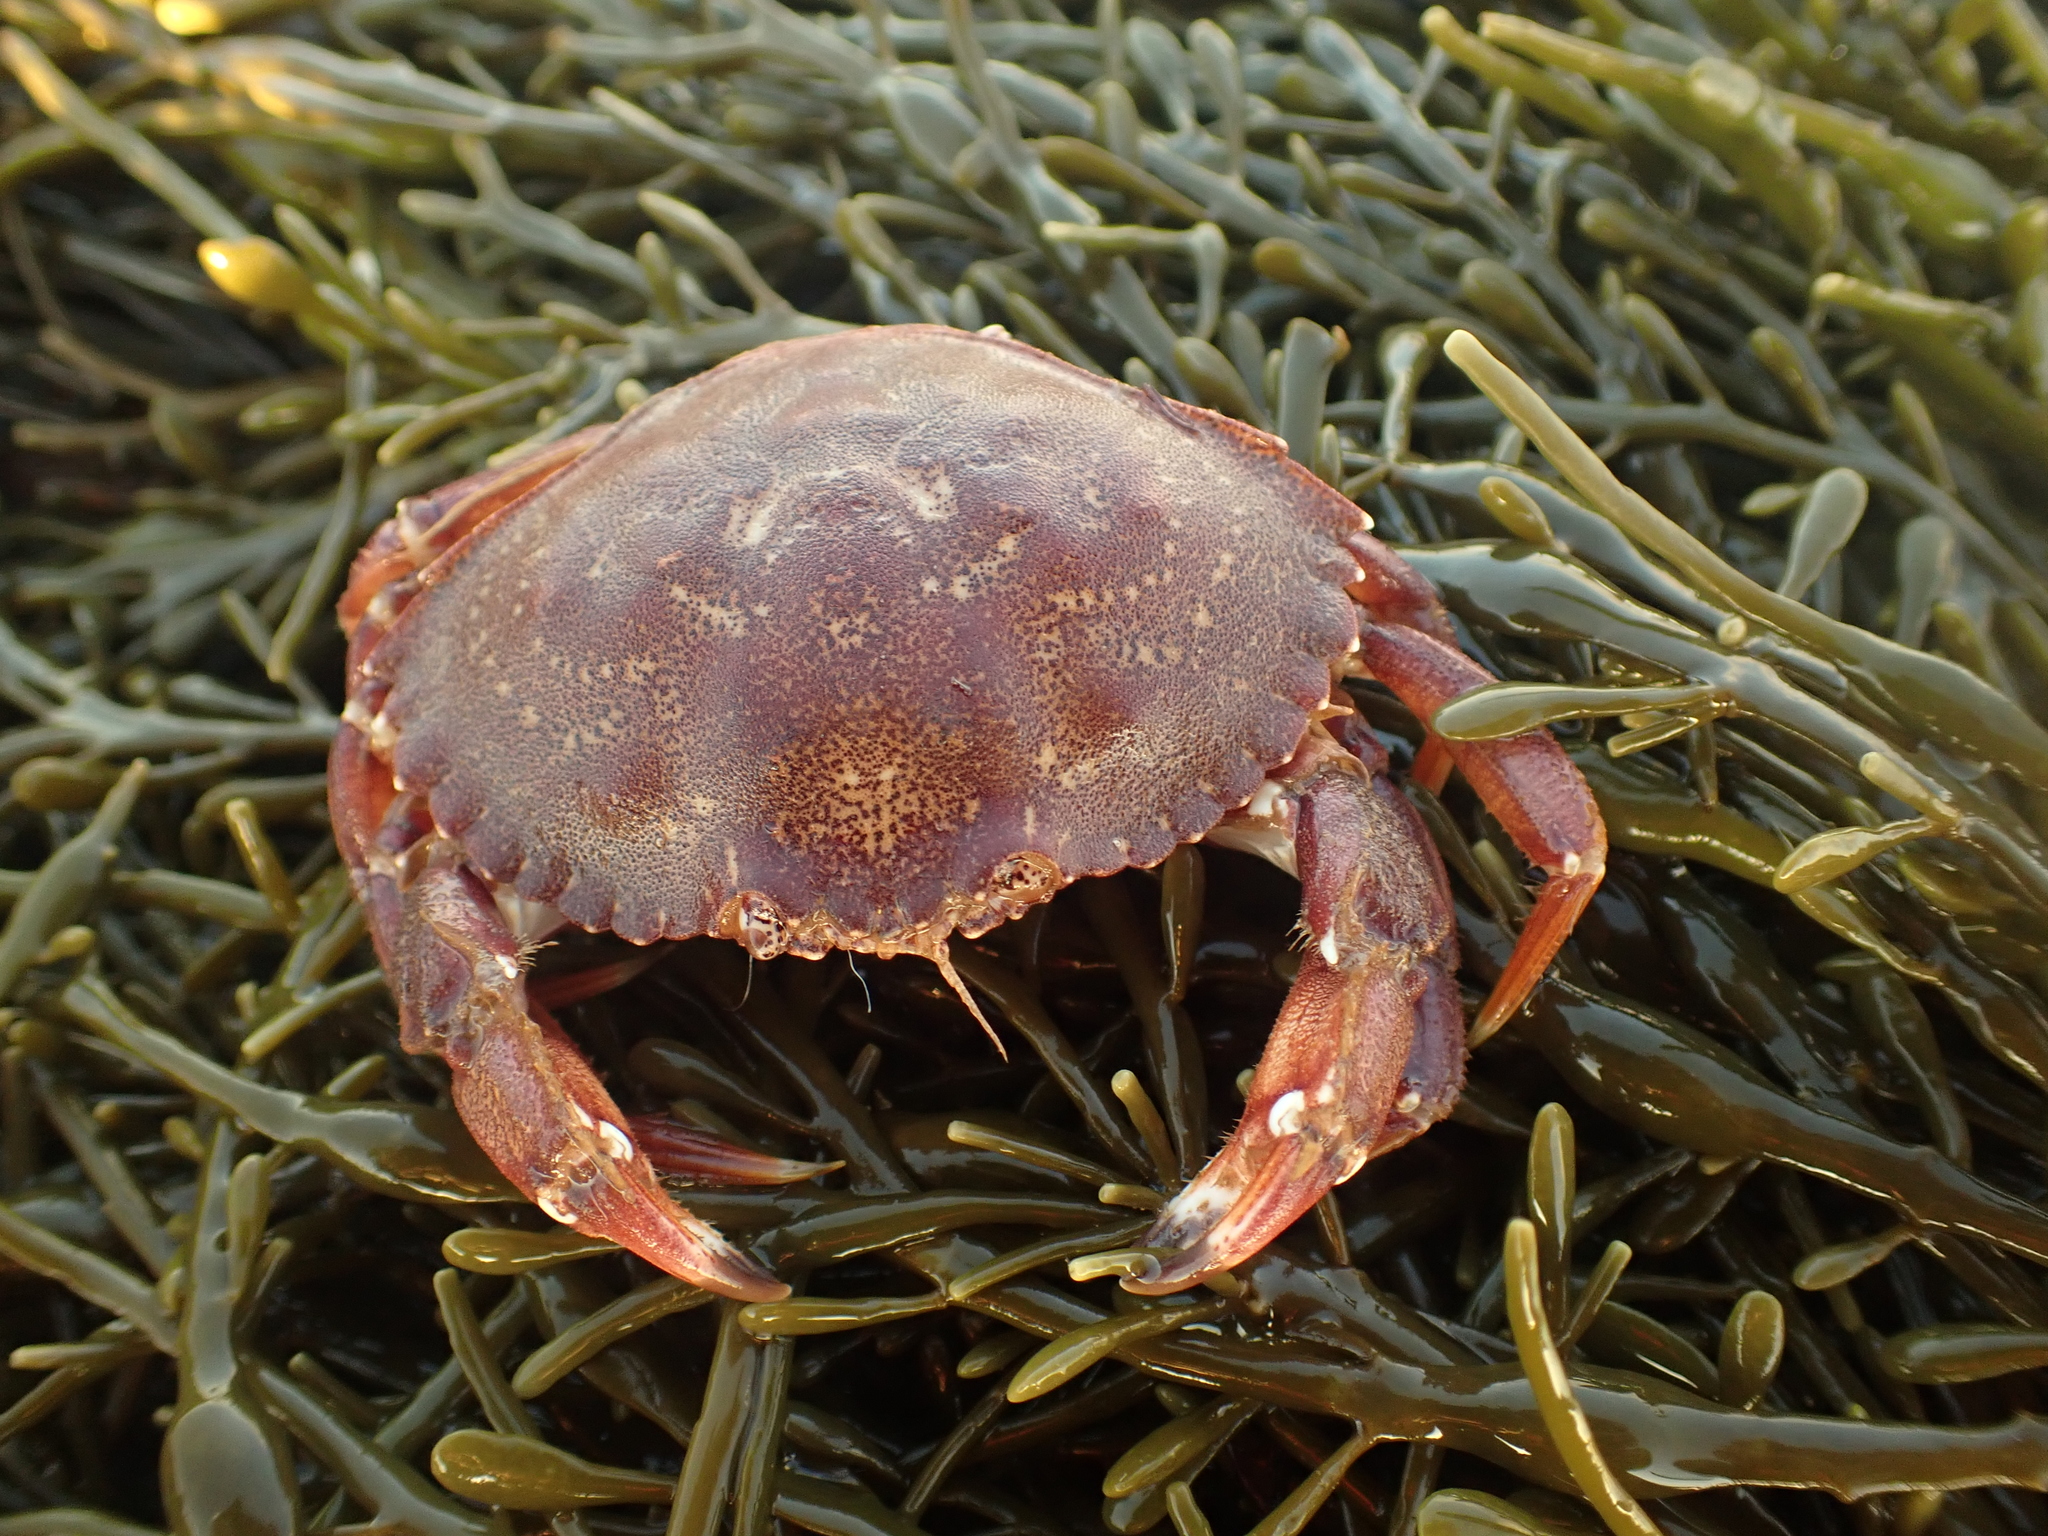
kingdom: Animalia
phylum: Arthropoda
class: Malacostraca
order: Decapoda
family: Cancridae
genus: Cancer
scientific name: Cancer irroratus
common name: Atlantic rock crab
